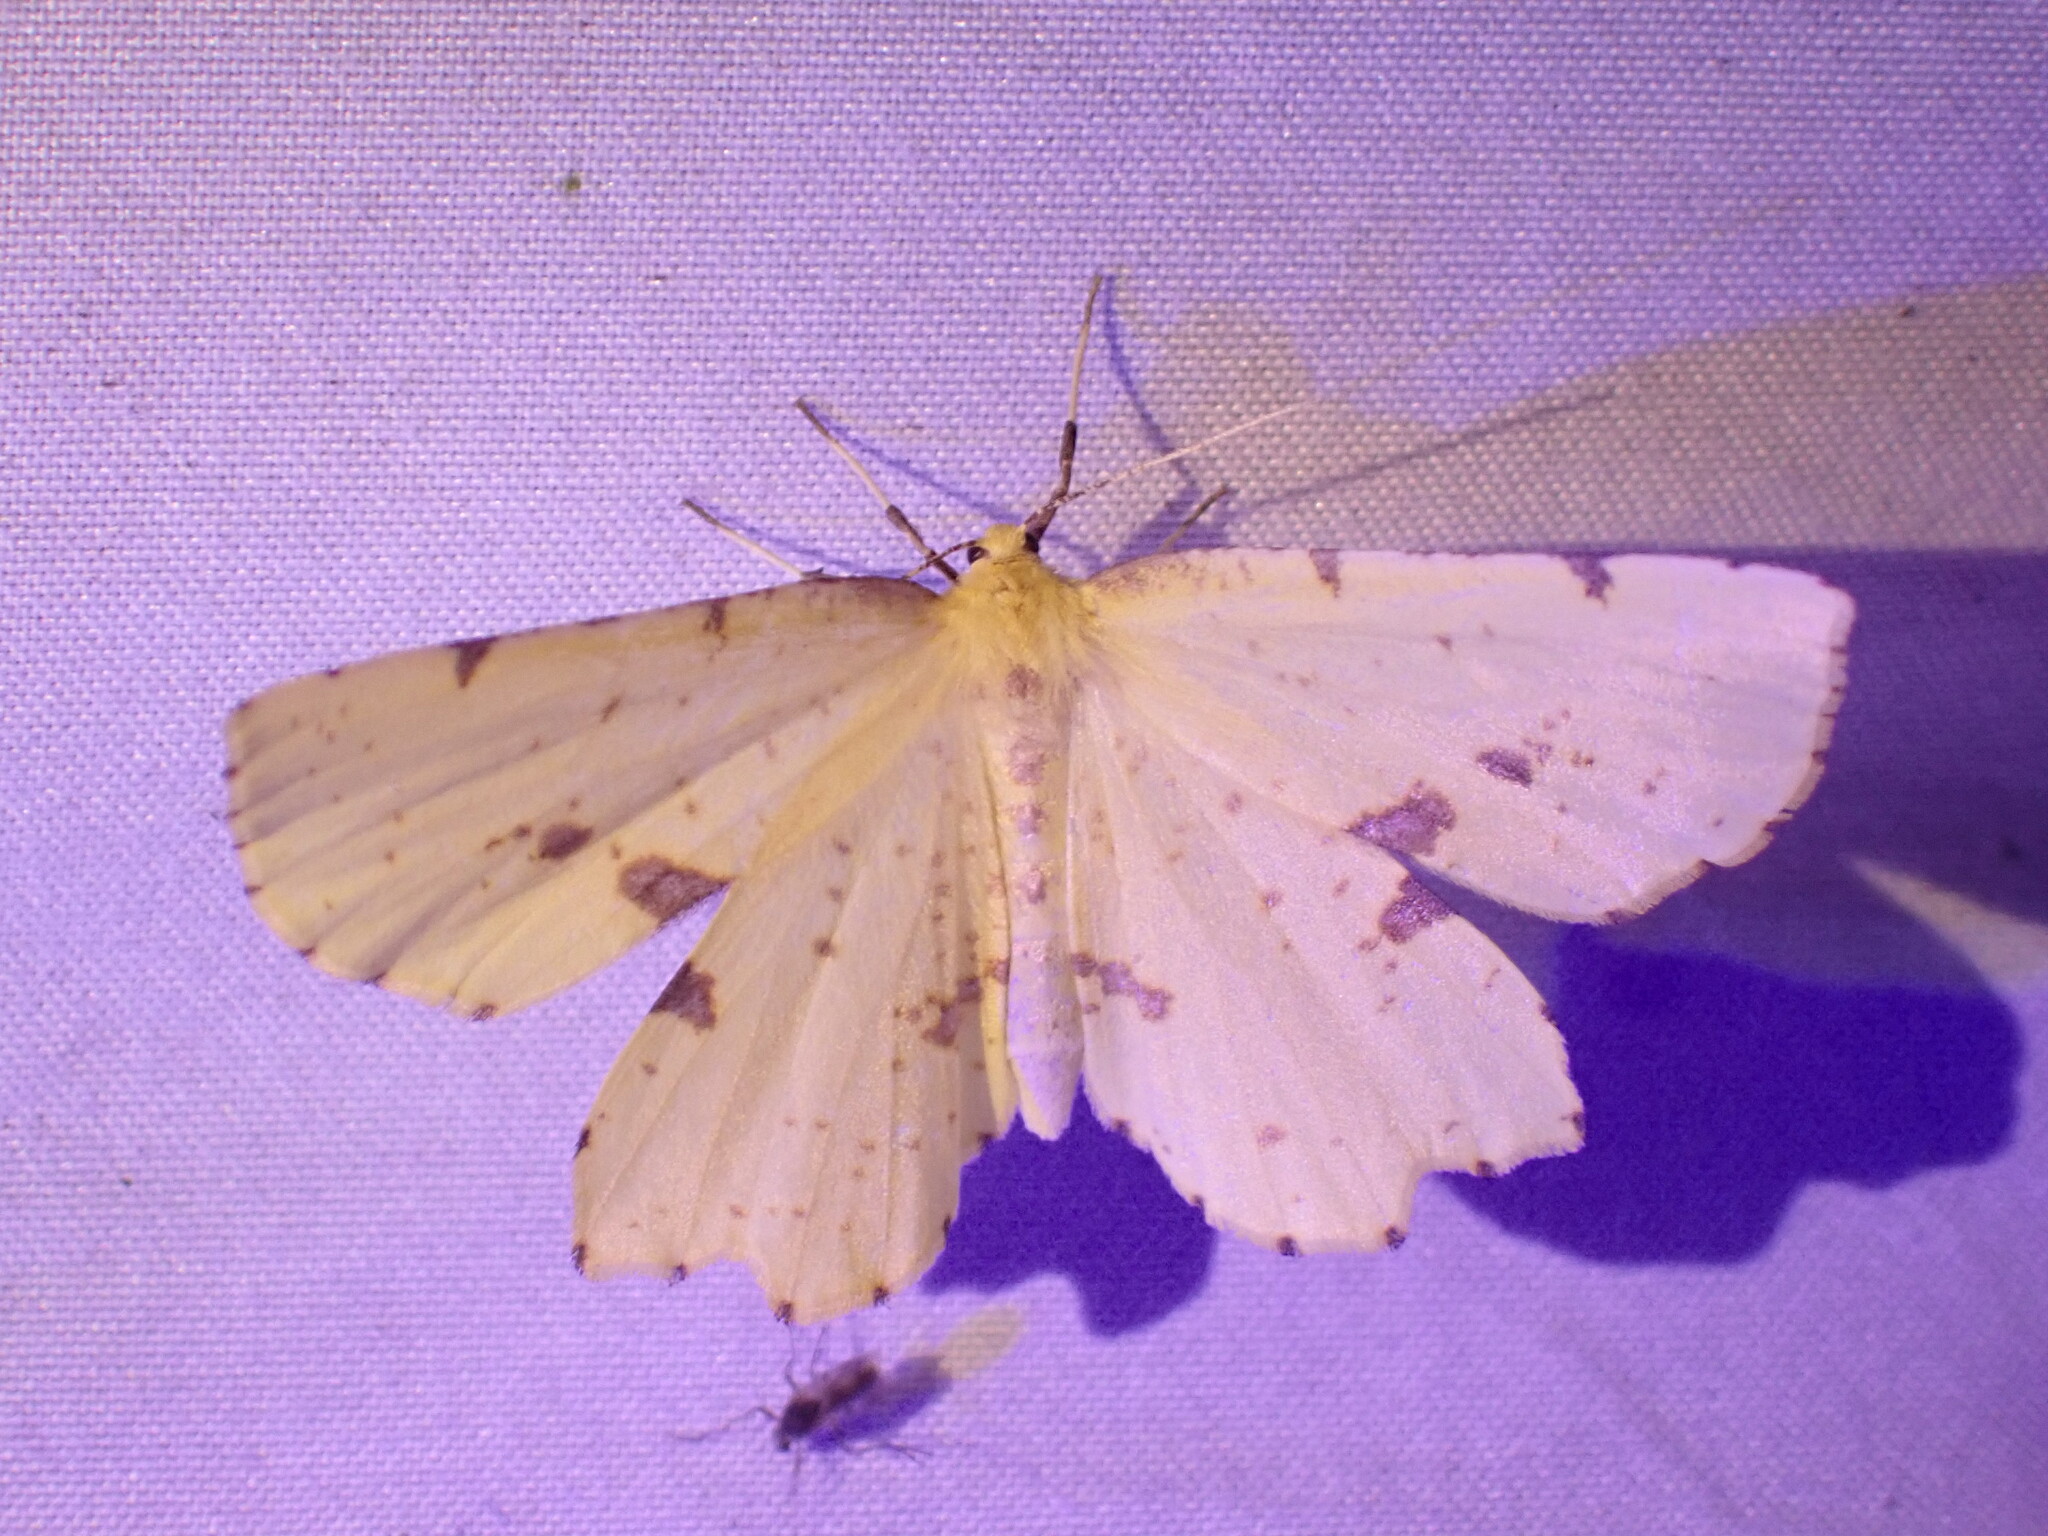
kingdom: Animalia
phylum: Arthropoda
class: Insecta
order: Lepidoptera
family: Geometridae
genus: Xanthotype
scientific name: Xanthotype
